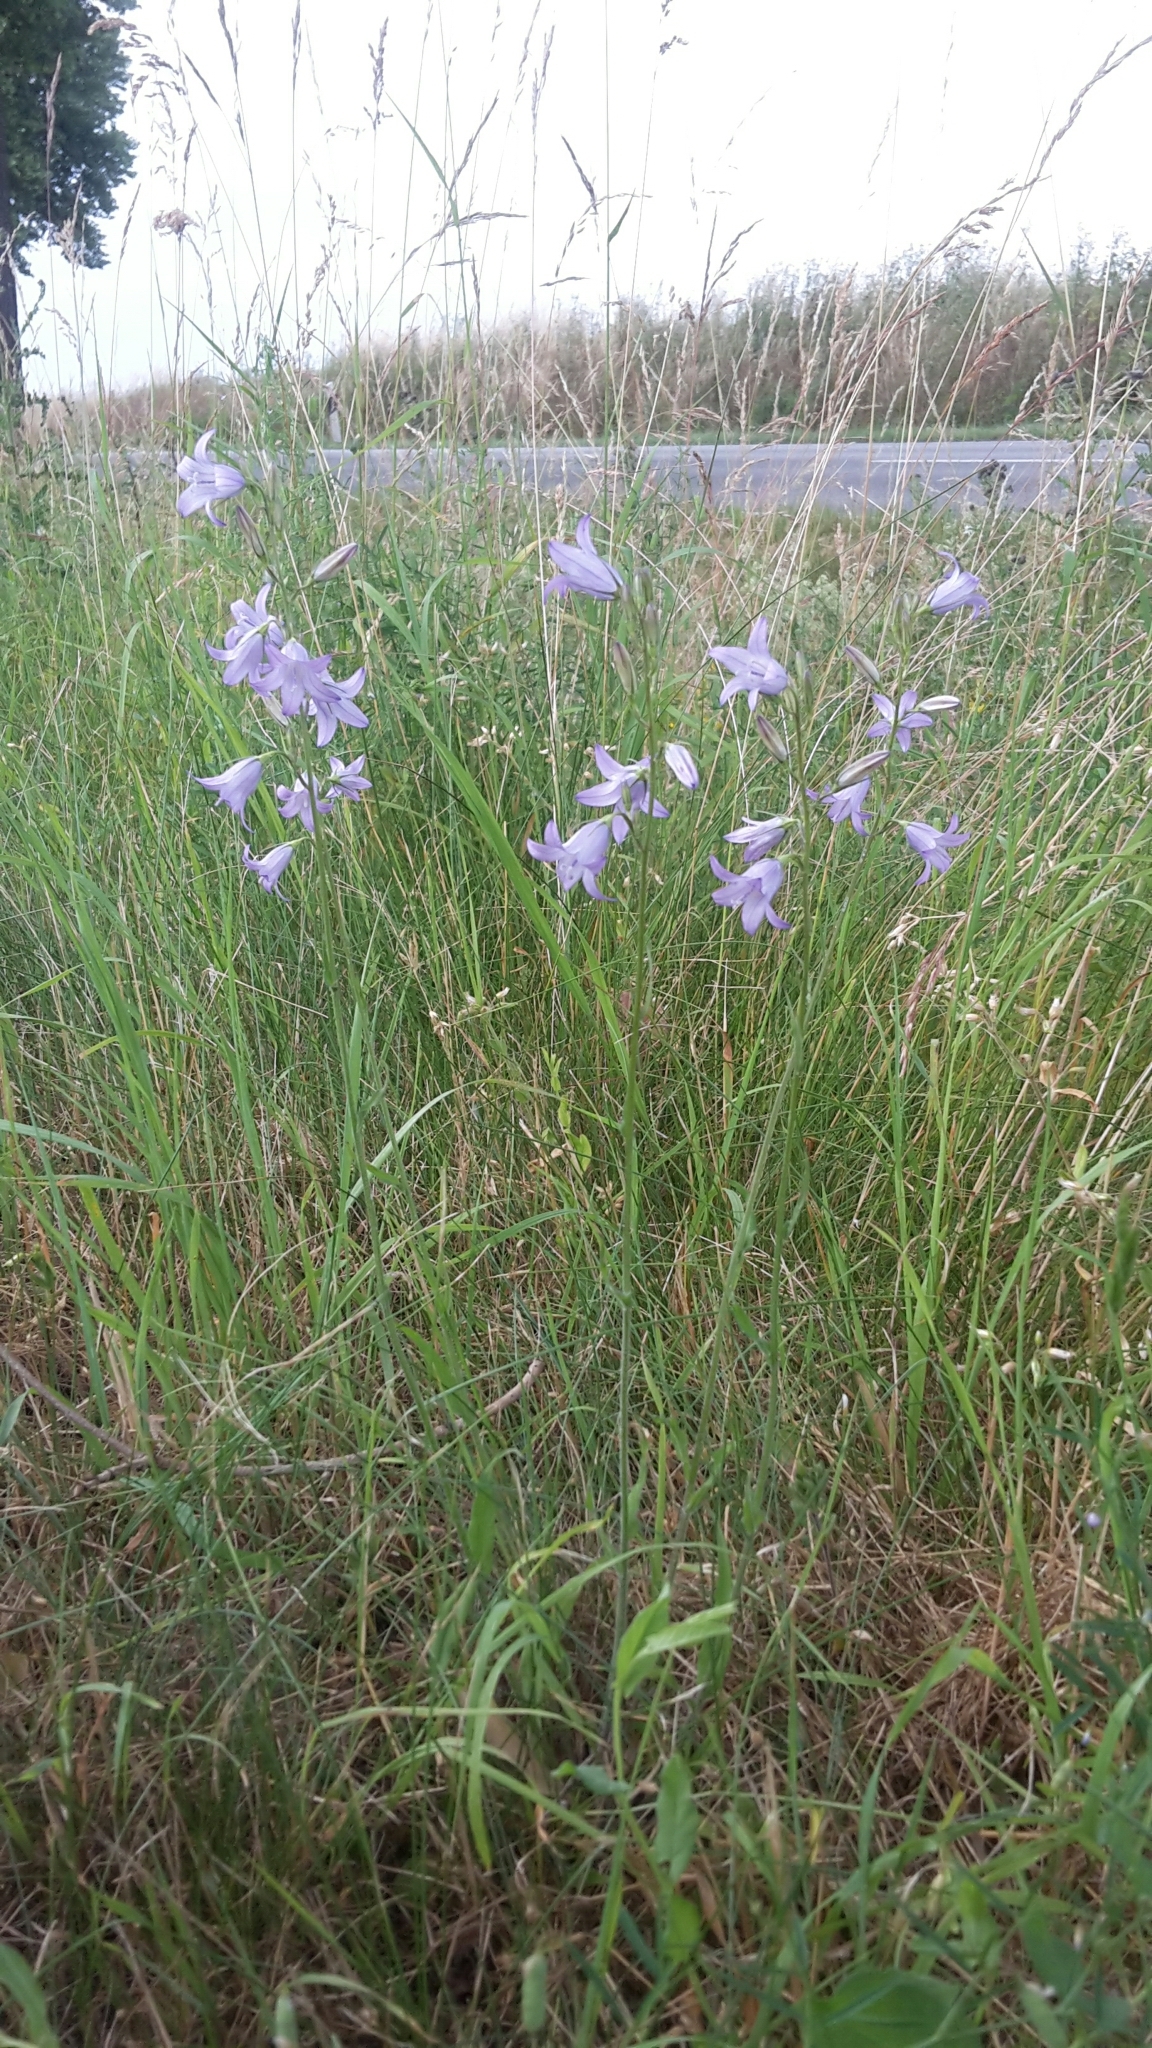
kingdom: Plantae
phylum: Tracheophyta
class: Magnoliopsida
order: Asterales
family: Campanulaceae
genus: Campanula
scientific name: Campanula rapunculus
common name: Rampion bellflower
